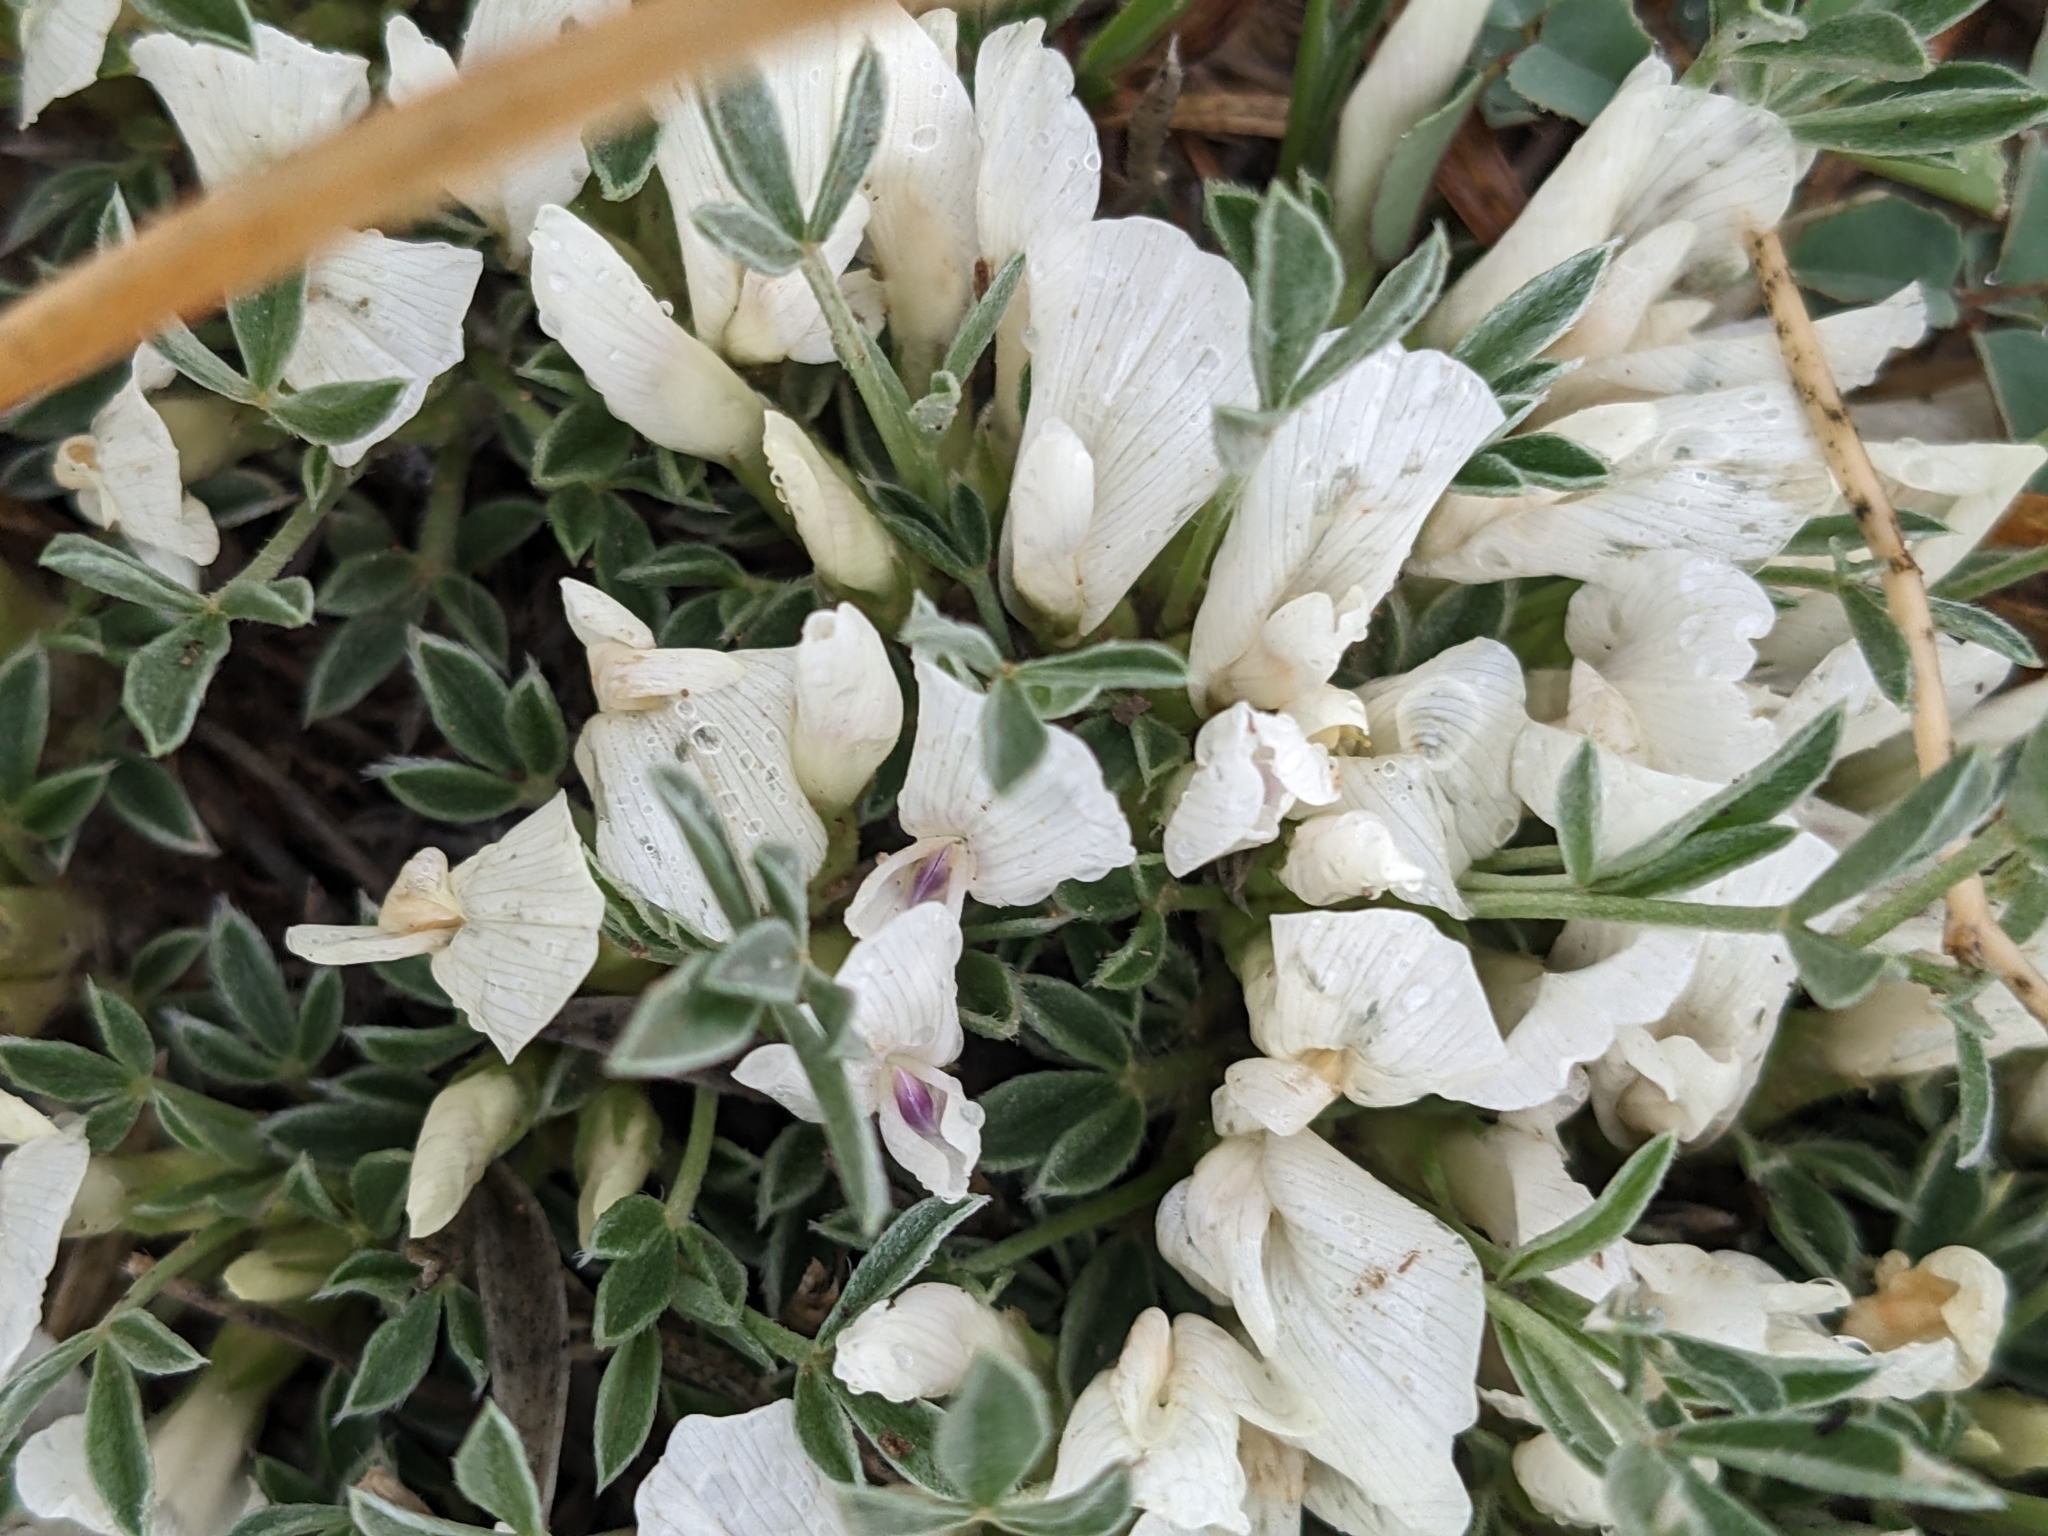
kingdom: Plantae
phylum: Tracheophyta
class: Magnoliopsida
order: Fabales
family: Fabaceae
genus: Astragalus
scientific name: Astragalus gilviflorus
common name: Cushion milk-vetch
